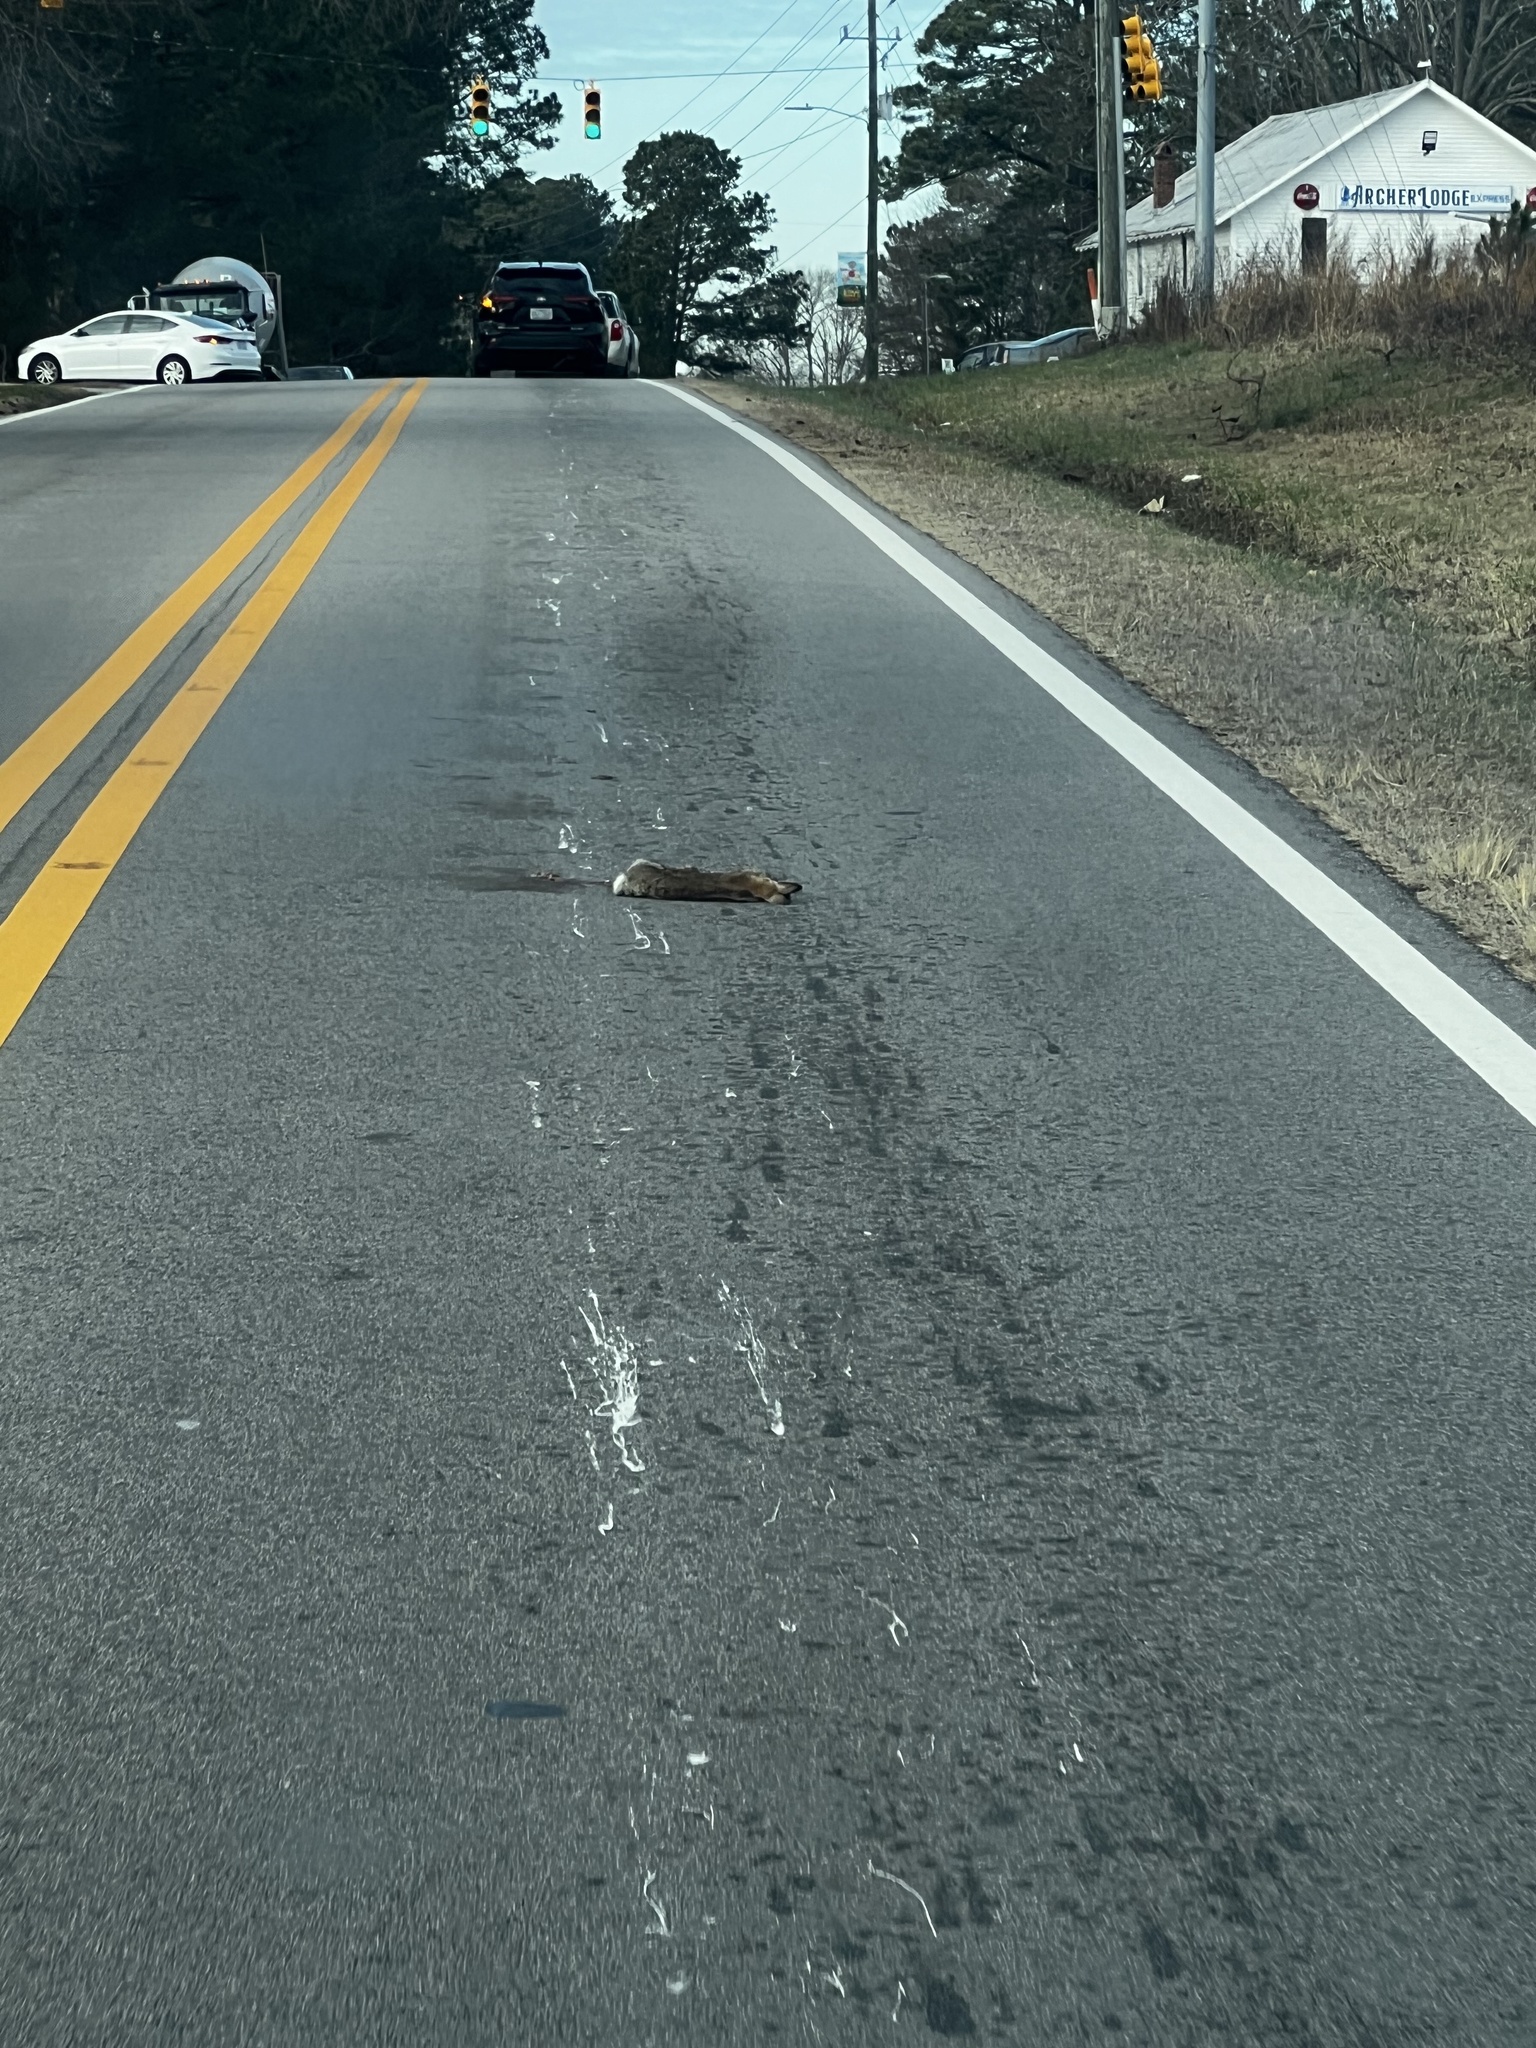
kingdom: Animalia
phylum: Chordata
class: Mammalia
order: Lagomorpha
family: Leporidae
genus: Sylvilagus
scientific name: Sylvilagus floridanus
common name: Eastern cottontail
